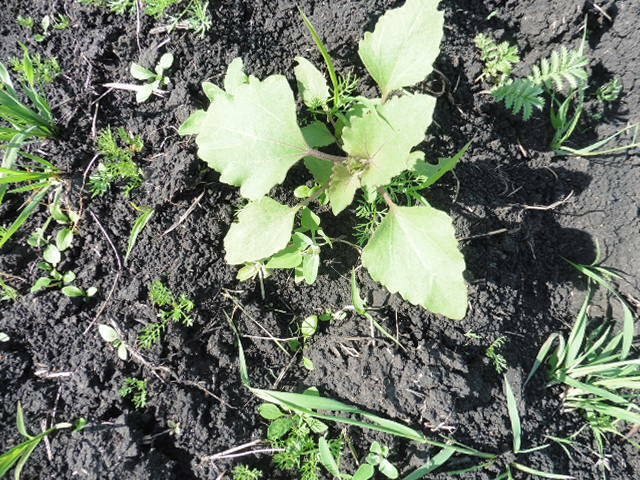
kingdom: Plantae
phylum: Tracheophyta
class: Magnoliopsida
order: Asterales
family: Asteraceae
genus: Xanthium
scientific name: Xanthium orientale
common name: Californian burr
